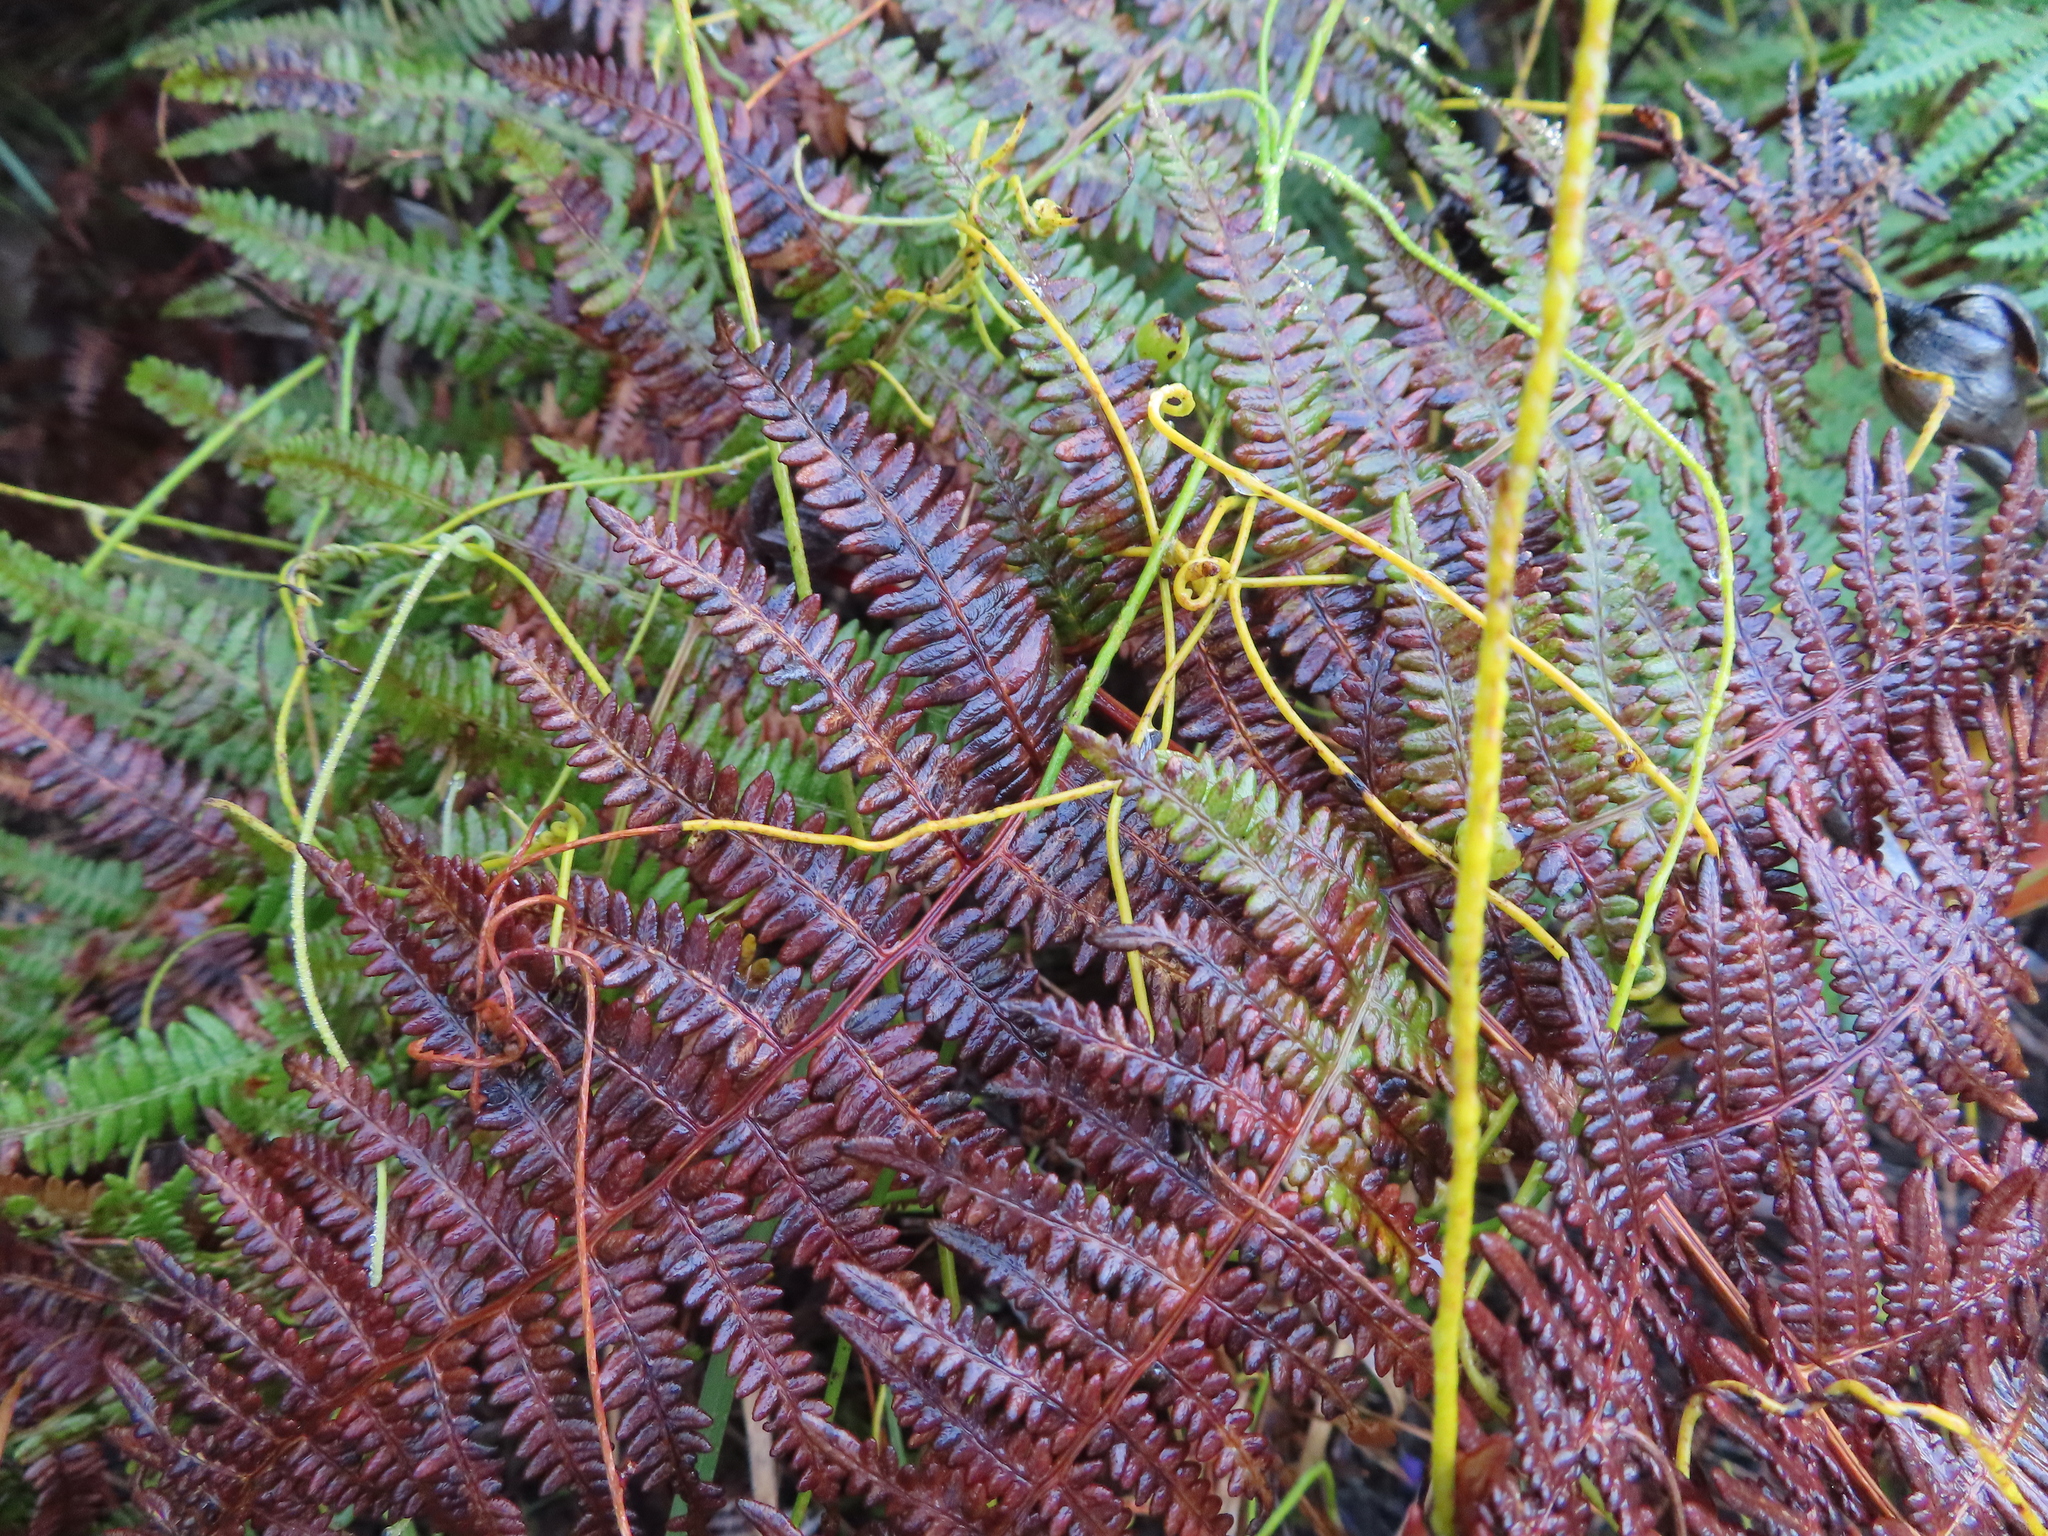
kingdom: Plantae
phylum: Tracheophyta
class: Polypodiopsida
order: Polypodiales
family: Dennstaedtiaceae
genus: Pteridium
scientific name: Pteridium aquilinum
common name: Bracken
